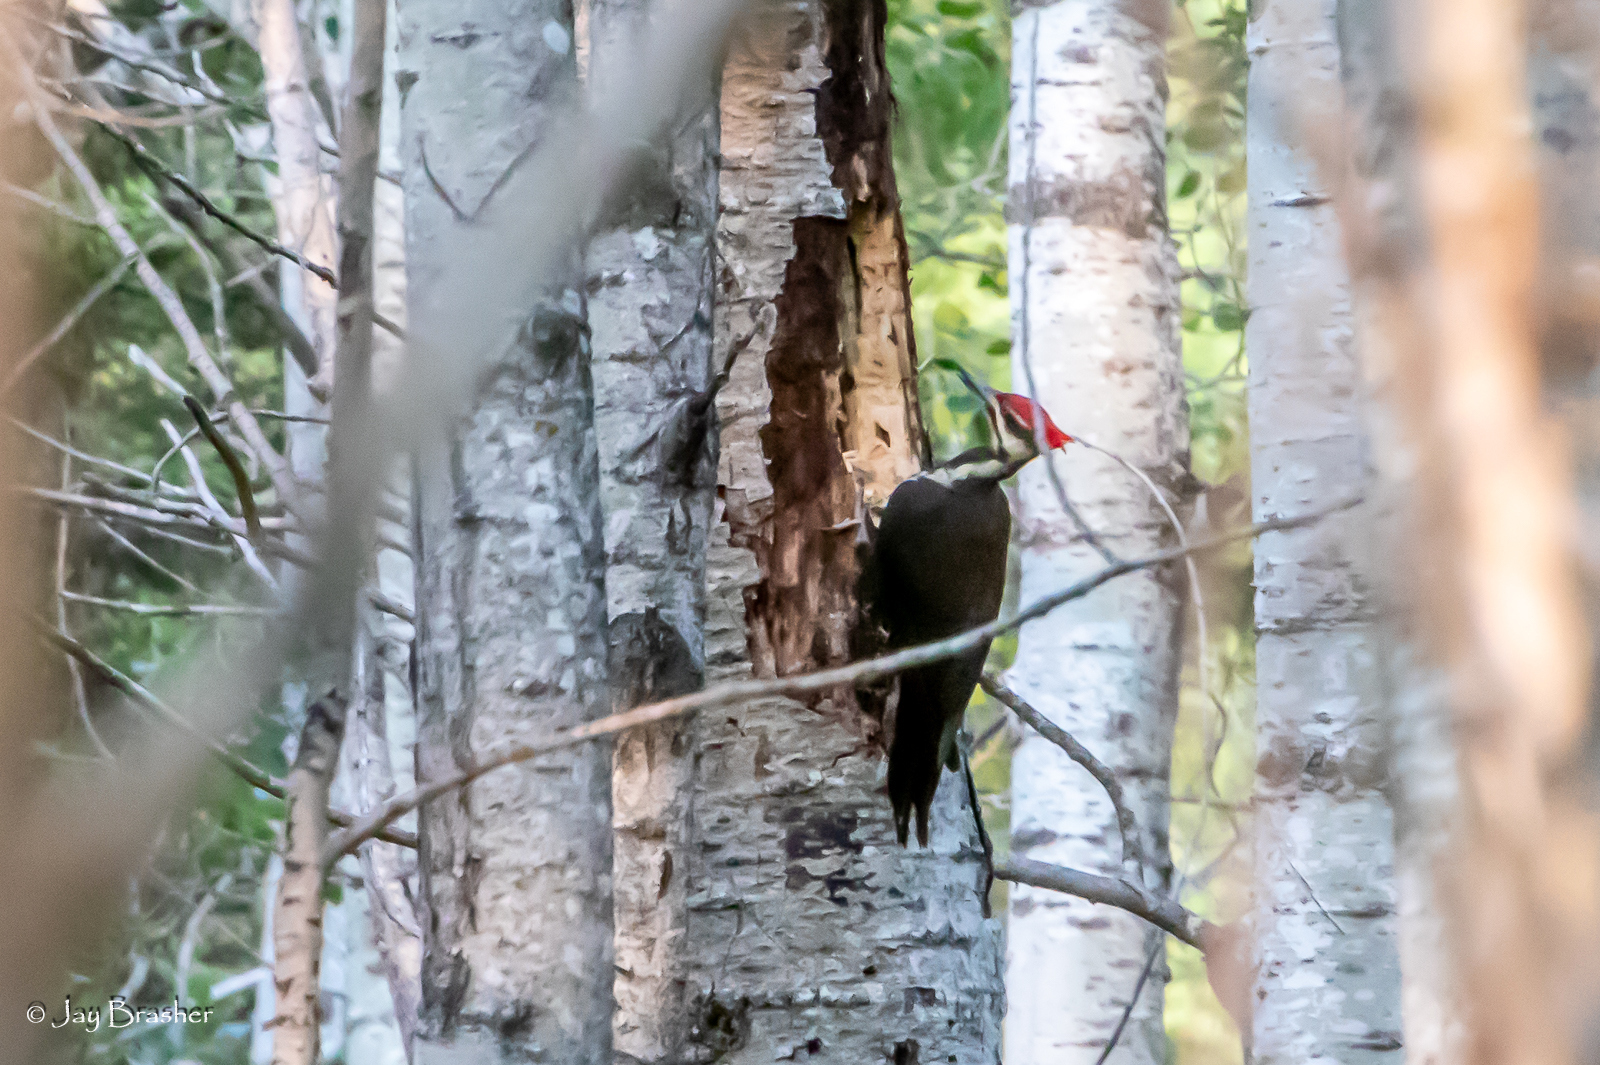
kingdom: Animalia
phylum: Chordata
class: Aves
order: Piciformes
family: Picidae
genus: Dryocopus
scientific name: Dryocopus pileatus
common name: Pileated woodpecker
